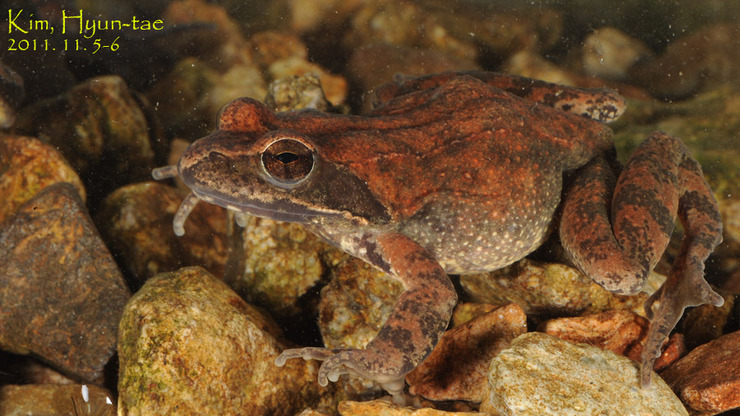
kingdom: Animalia
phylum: Chordata
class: Amphibia
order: Anura
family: Ranidae
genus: Rana
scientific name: Rana huanrenensis
